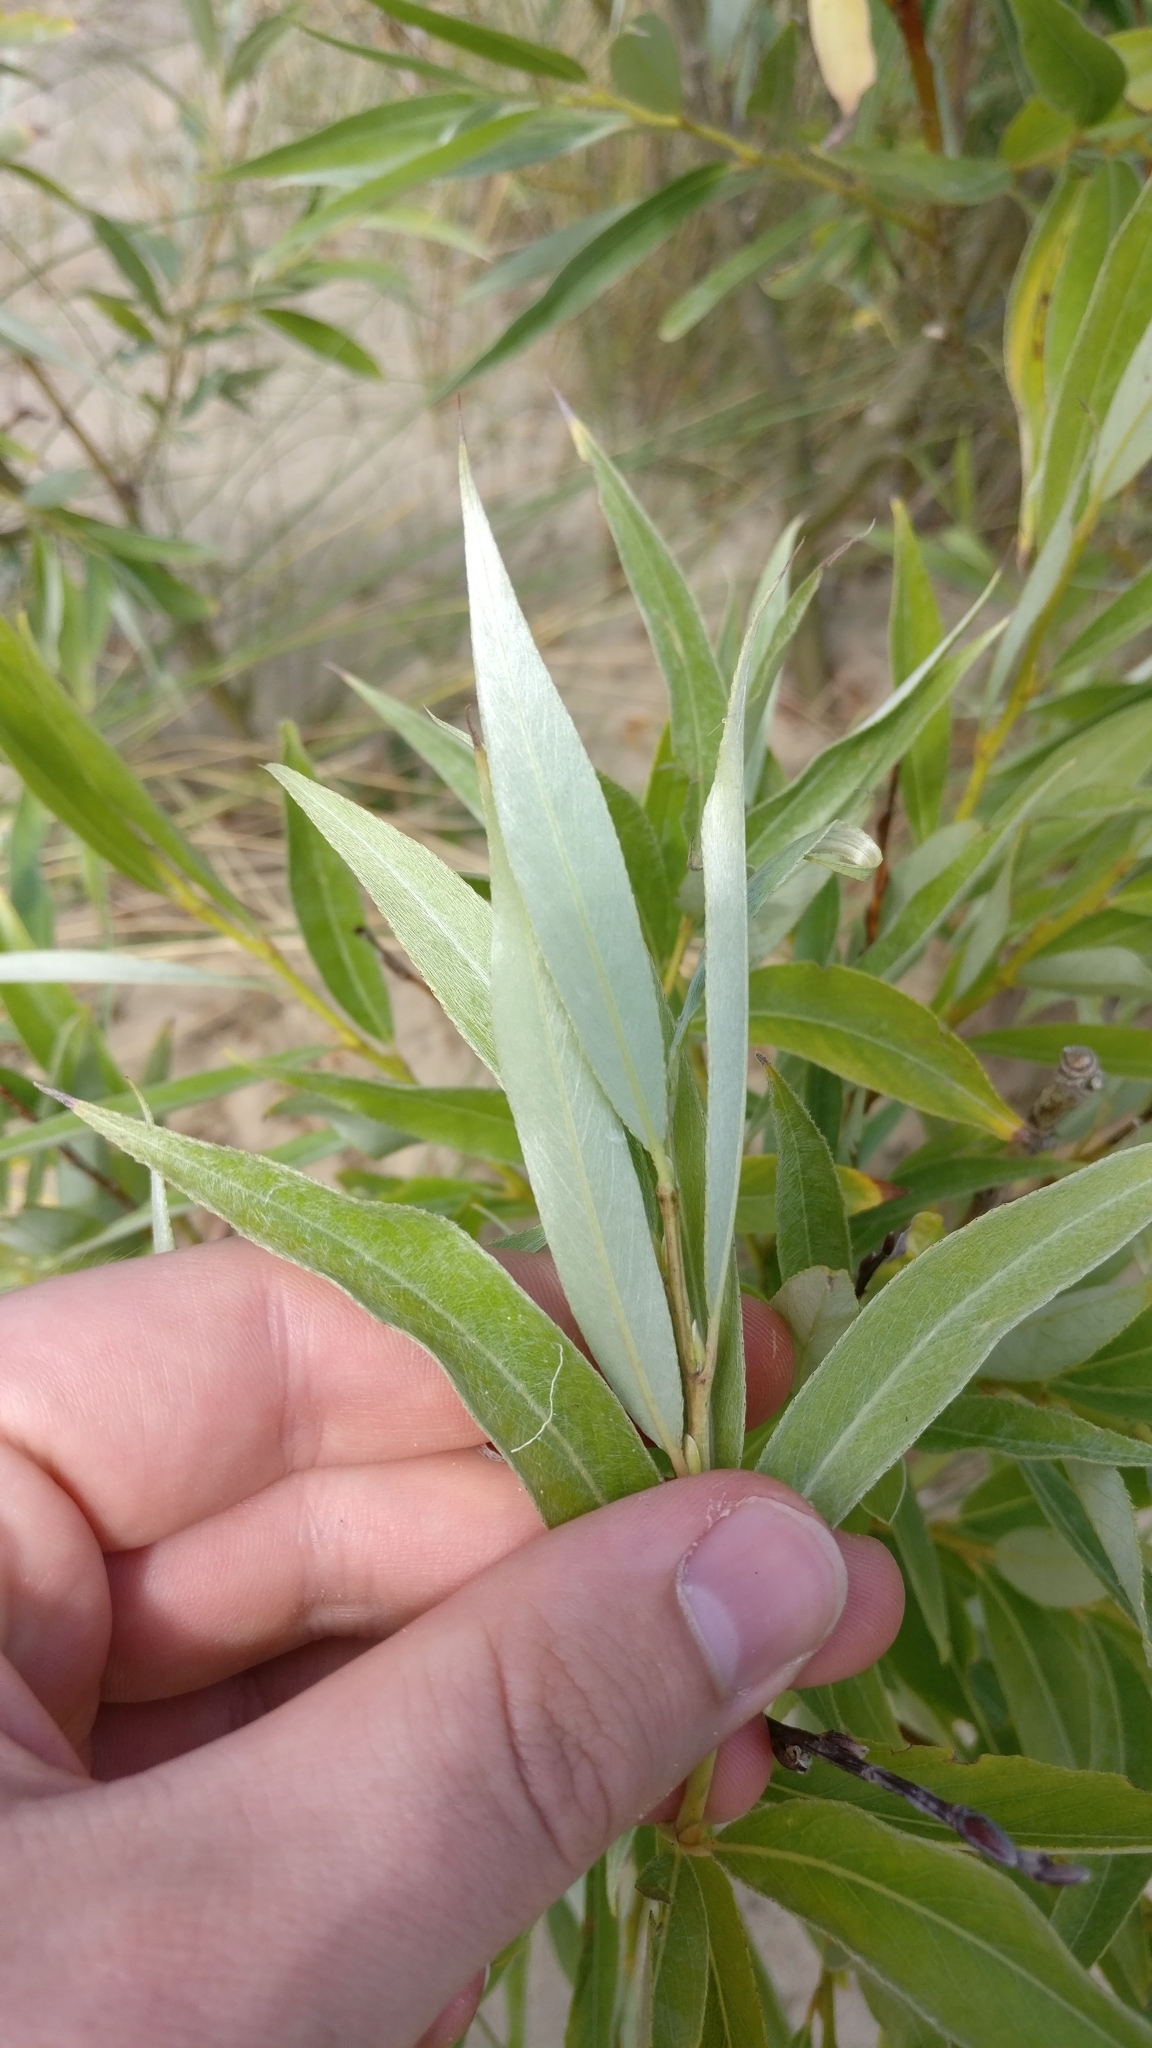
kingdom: Plantae
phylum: Tracheophyta
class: Magnoliopsida
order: Malpighiales
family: Salicaceae
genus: Salix
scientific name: Salix alba
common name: White willow
